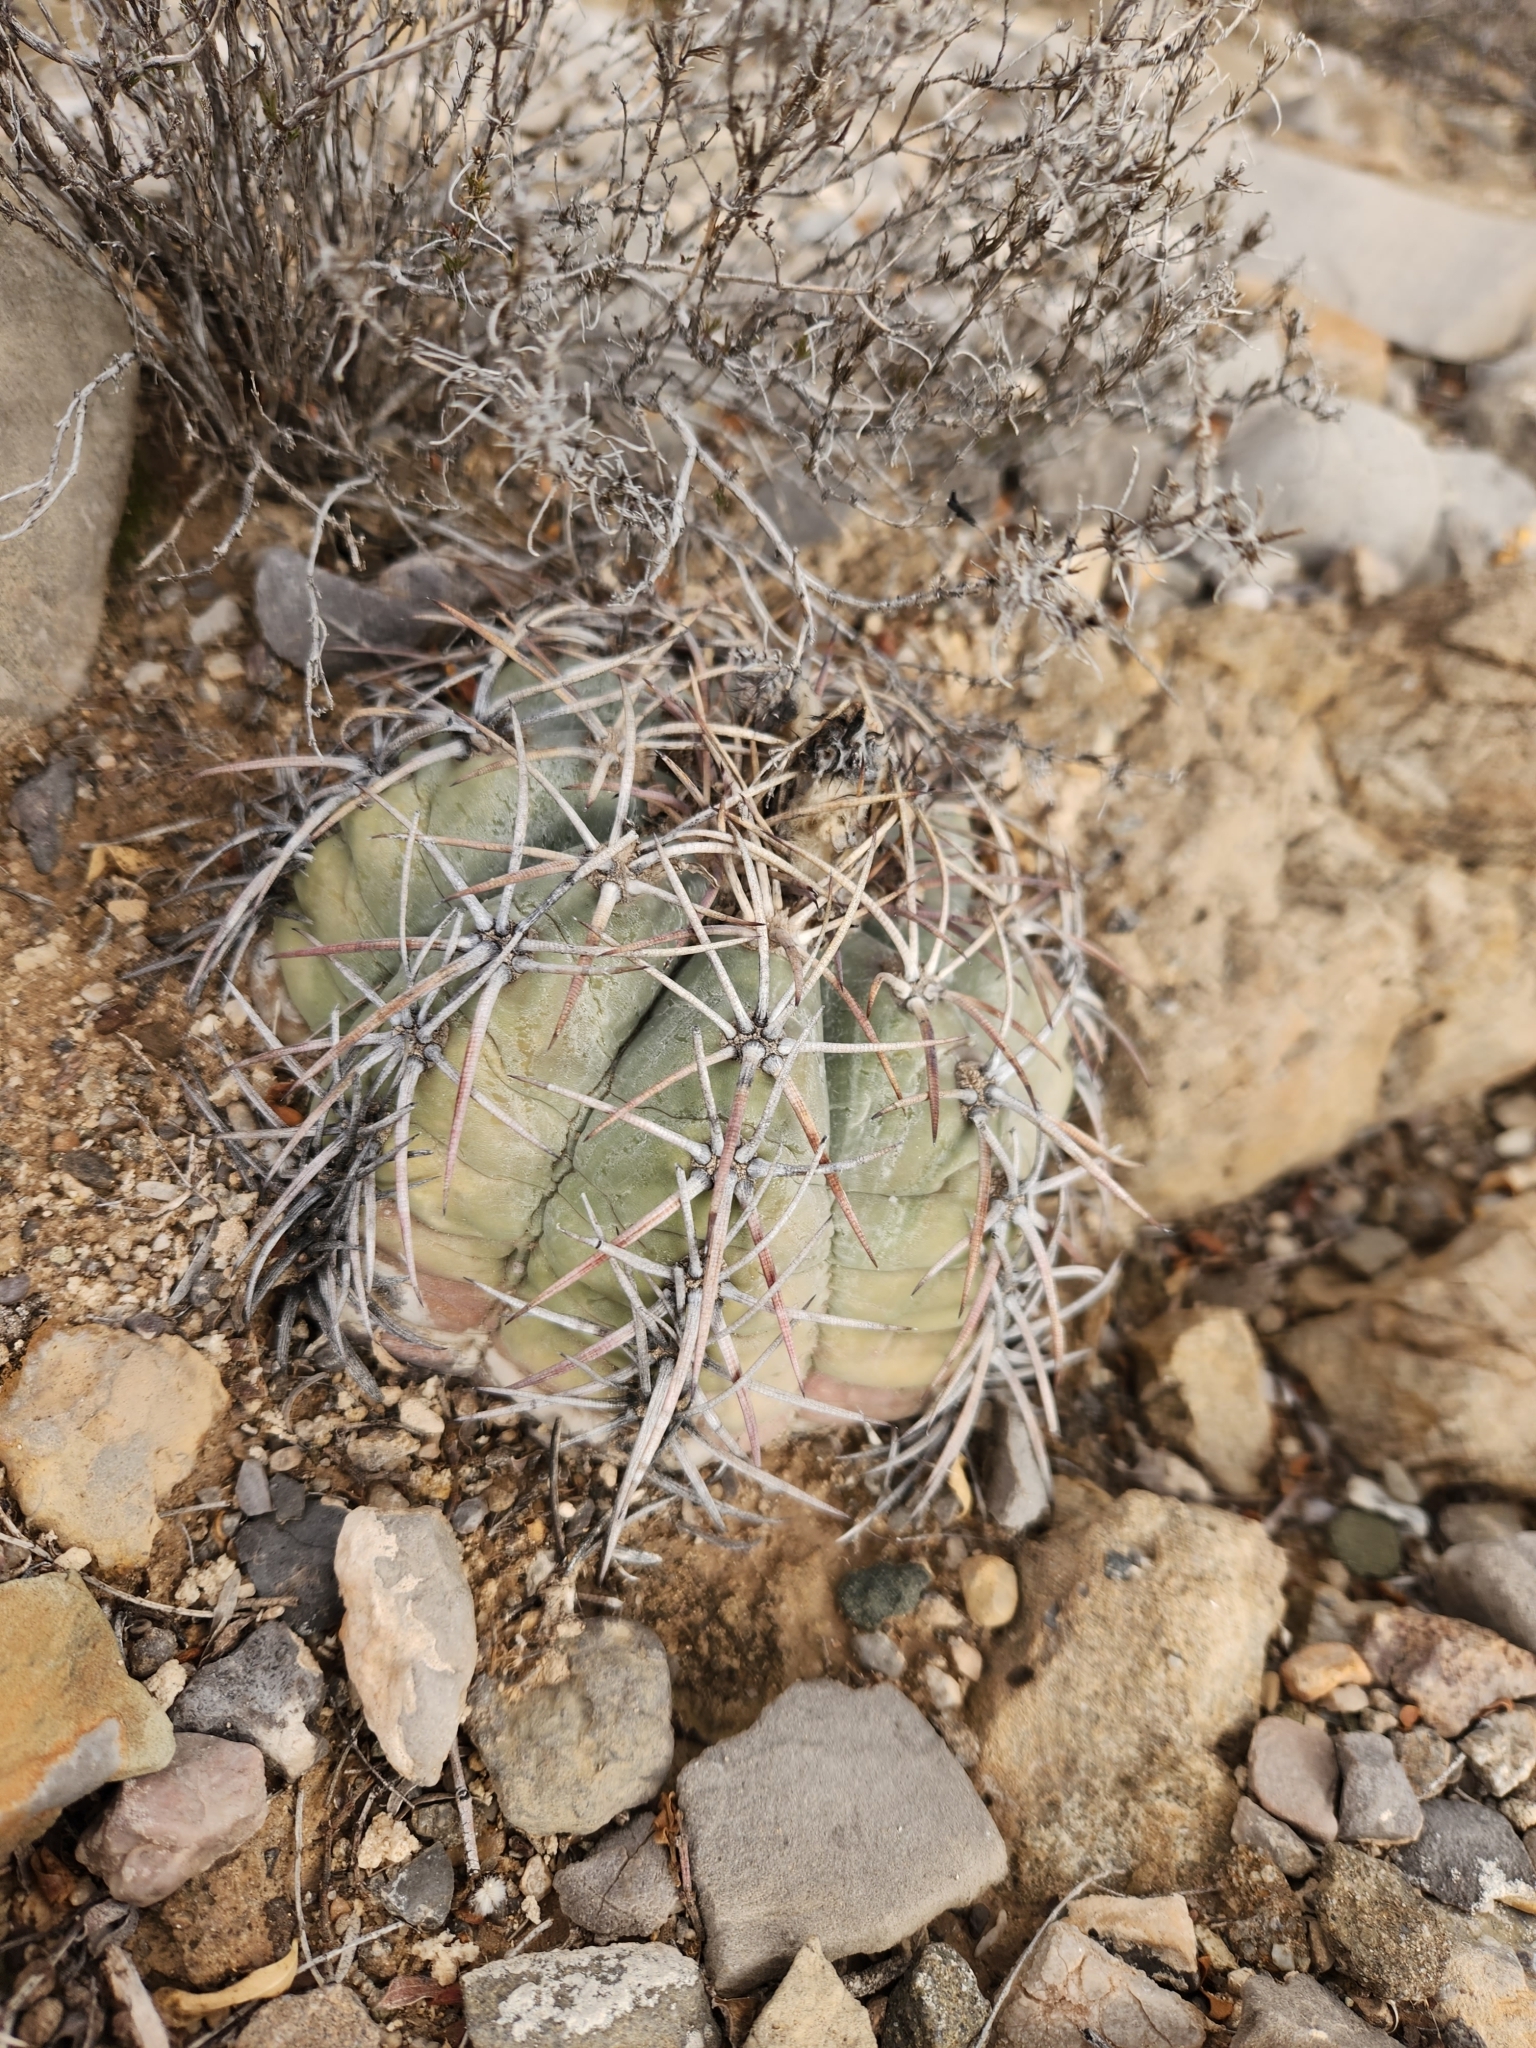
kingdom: Plantae
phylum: Tracheophyta
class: Magnoliopsida
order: Caryophyllales
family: Cactaceae
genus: Echinocactus
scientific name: Echinocactus horizonthalonius
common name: Devilshead
